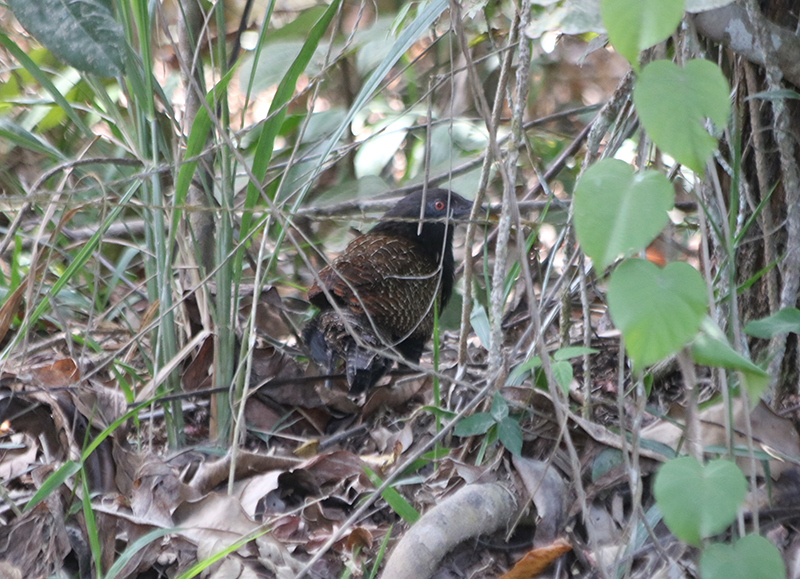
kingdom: Animalia
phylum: Chordata
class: Aves
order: Cuculiformes
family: Cuculidae
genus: Centropus
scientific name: Centropus phasianinus
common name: Pheasant coucal
